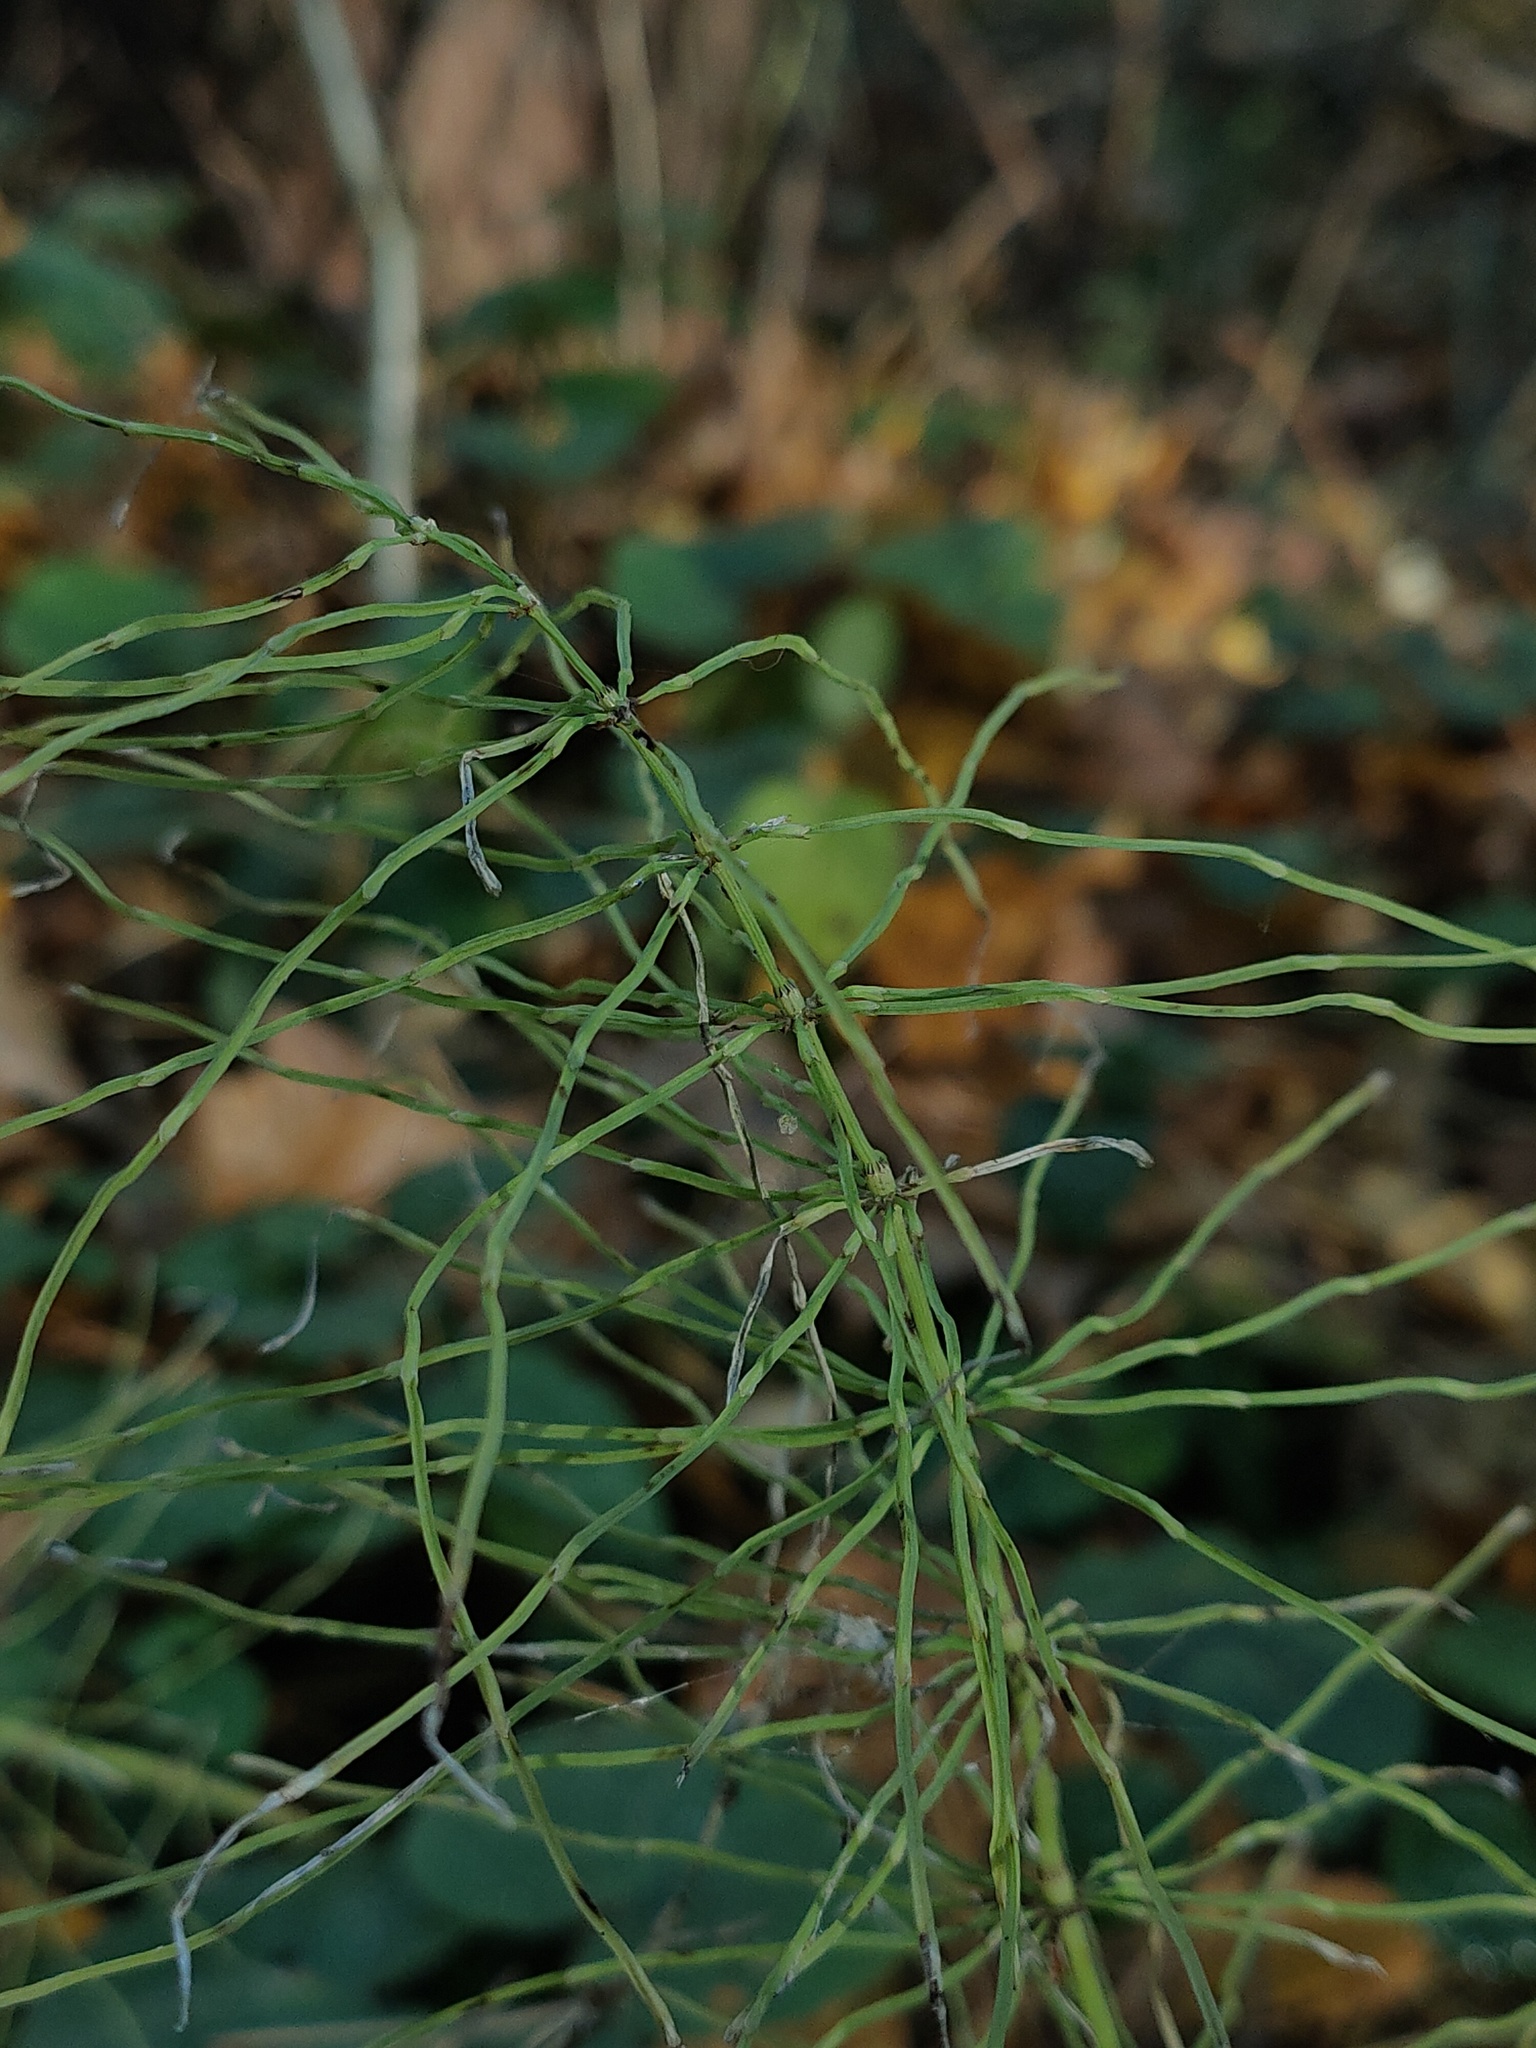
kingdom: Plantae
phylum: Tracheophyta
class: Polypodiopsida
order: Equisetales
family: Equisetaceae
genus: Equisetum
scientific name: Equisetum pratense
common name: Meadow horsetail
